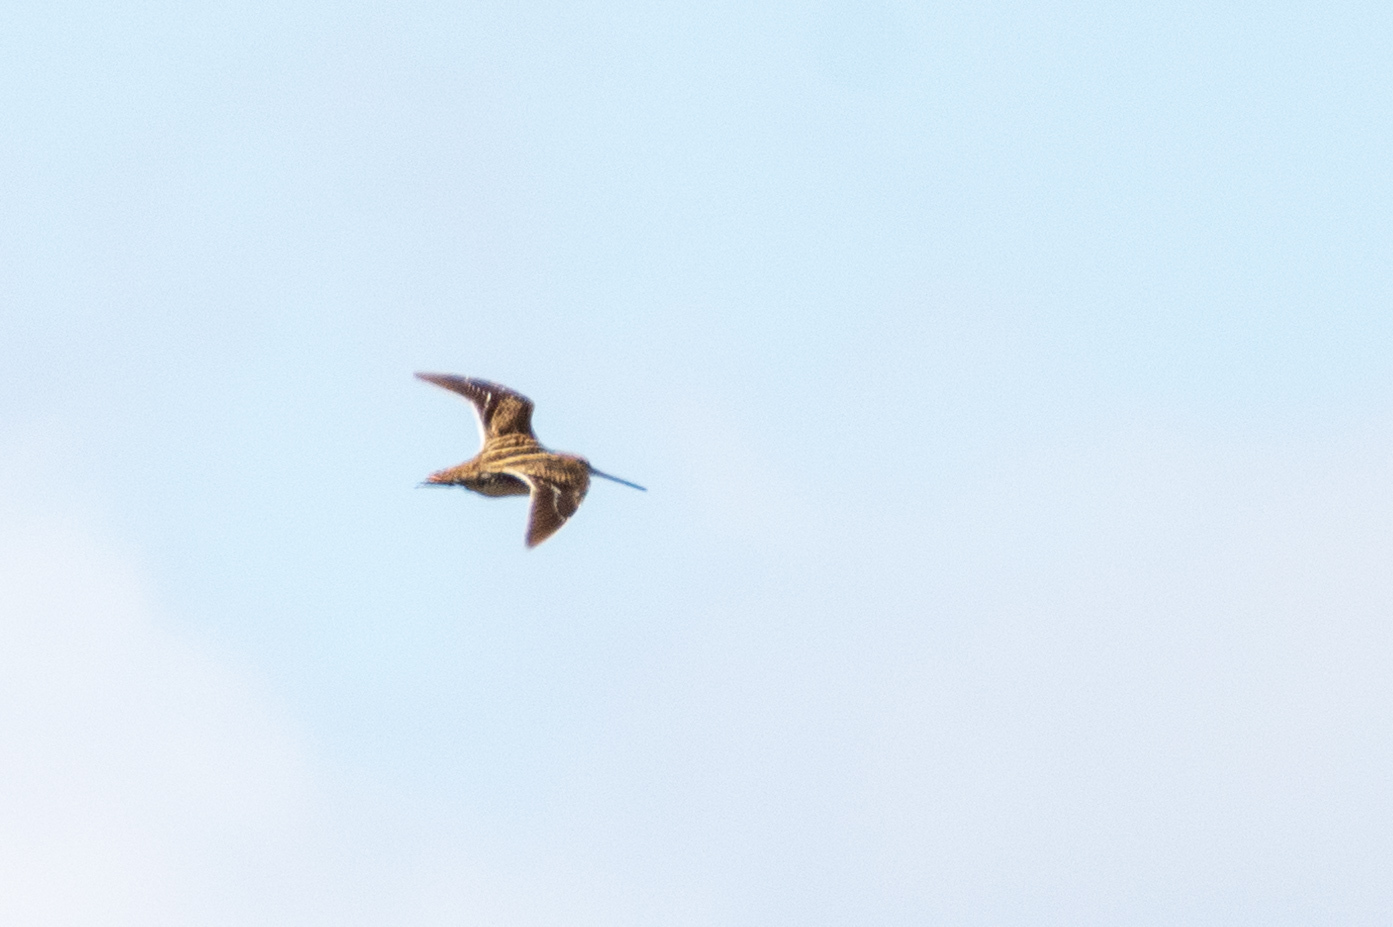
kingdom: Animalia
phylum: Chordata
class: Aves
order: Charadriiformes
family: Scolopacidae
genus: Gallinago
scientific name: Gallinago gallinago
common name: Common snipe
